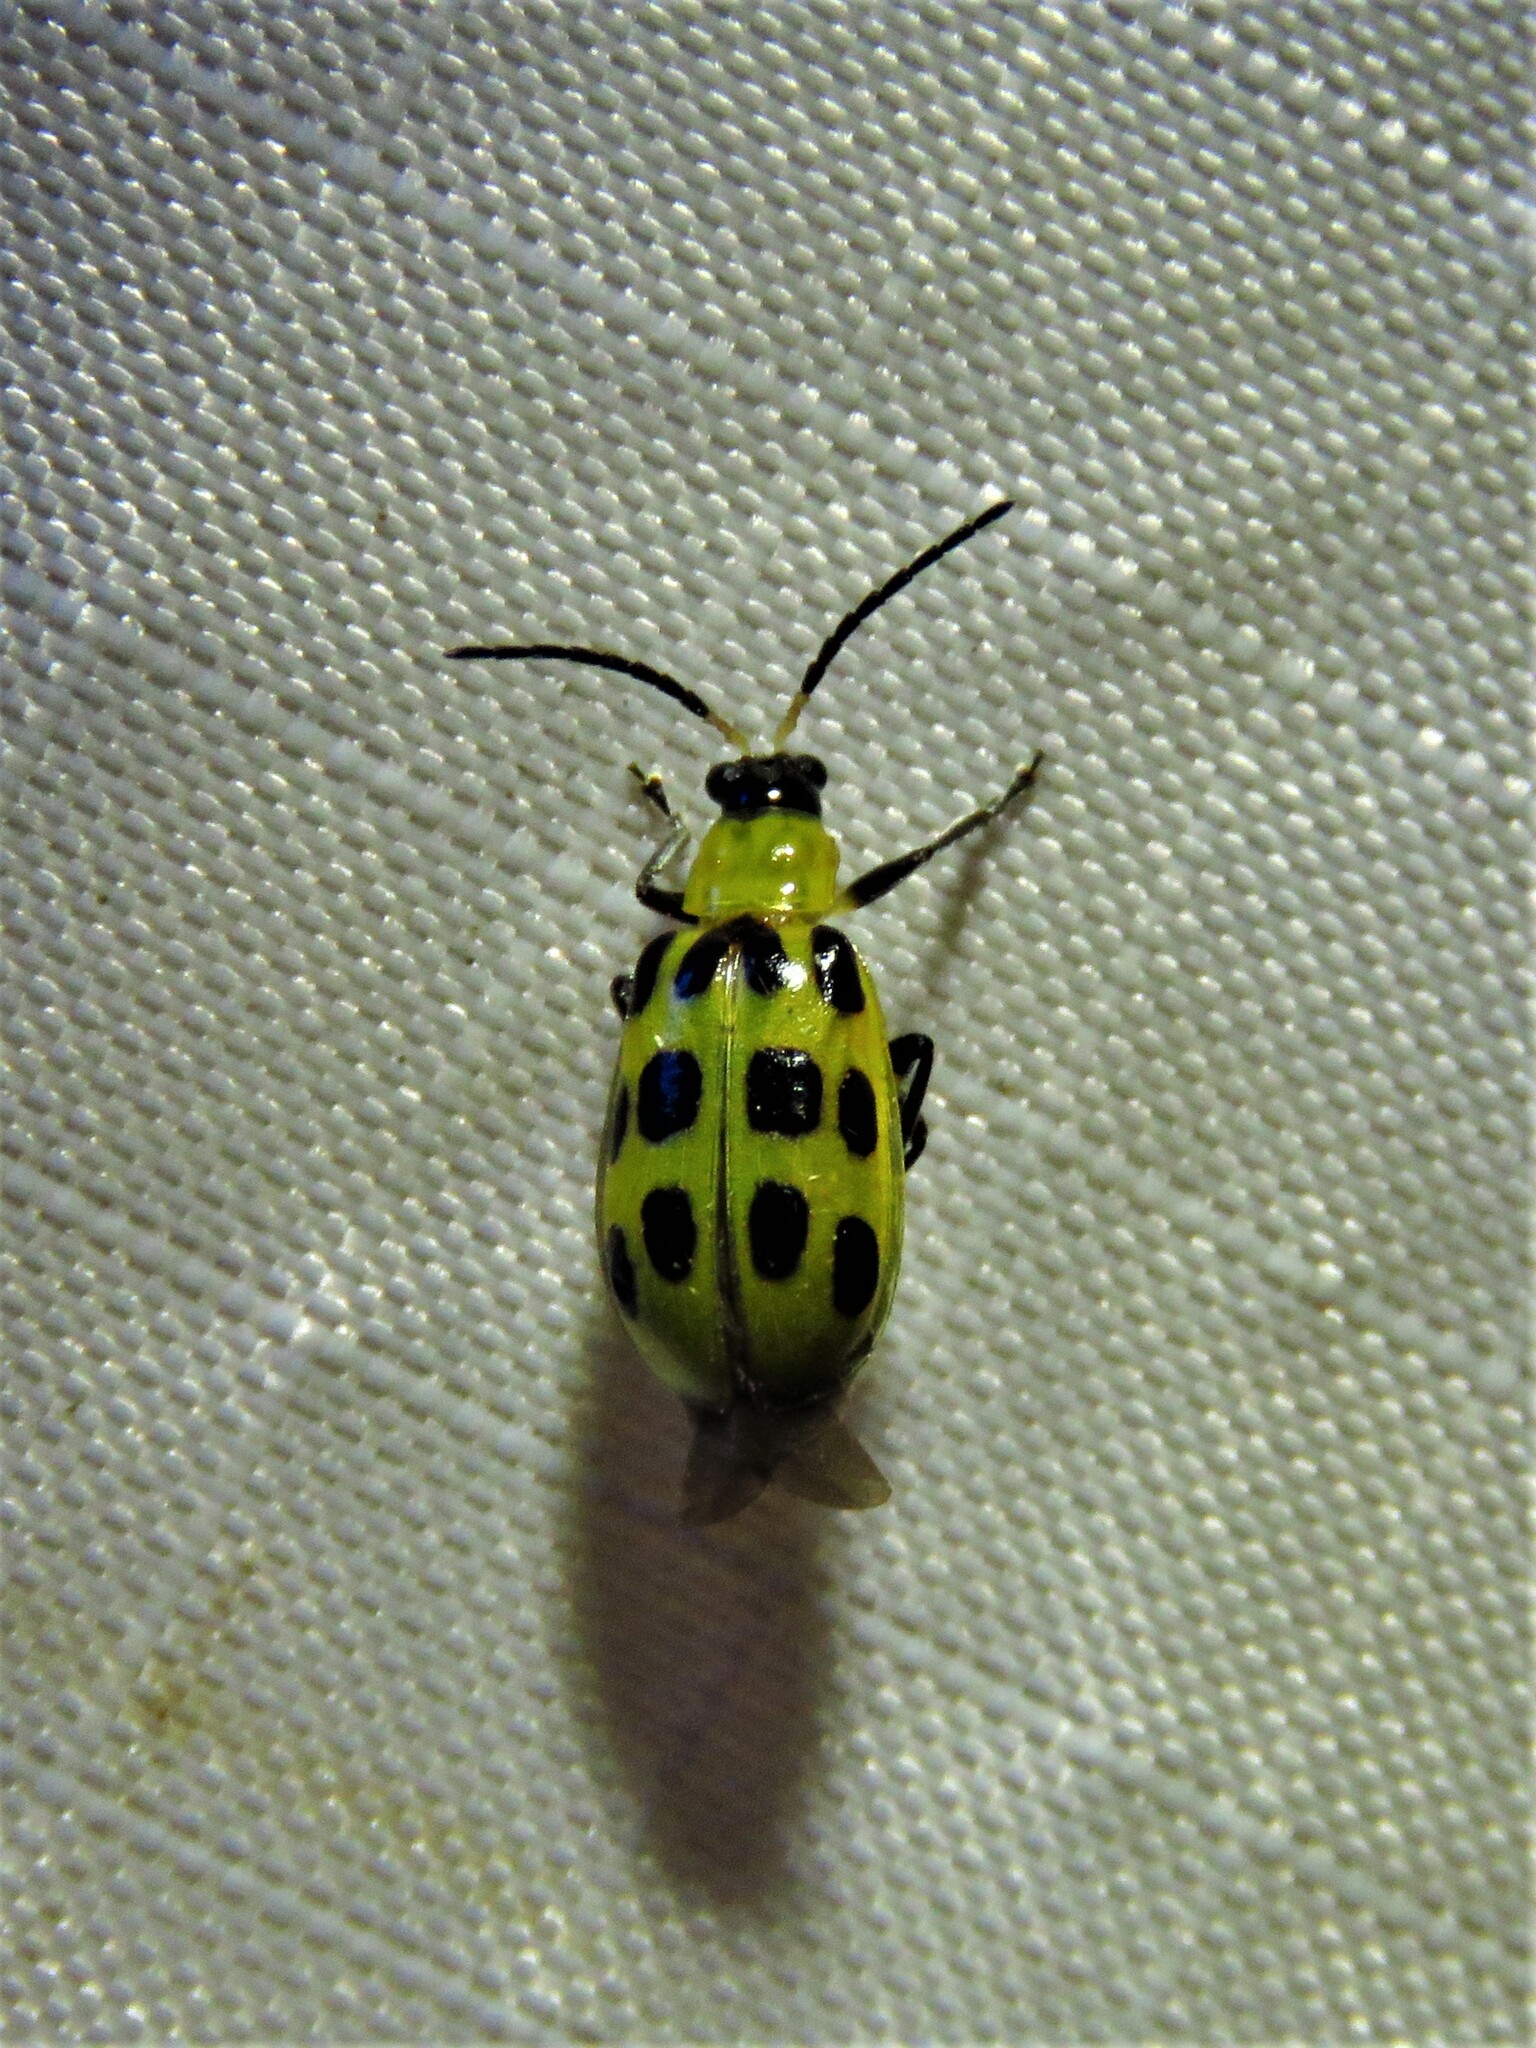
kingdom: Animalia
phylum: Arthropoda
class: Insecta
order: Coleoptera
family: Chrysomelidae
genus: Diabrotica
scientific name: Diabrotica undecimpunctata
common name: Spotted cucumber beetle
